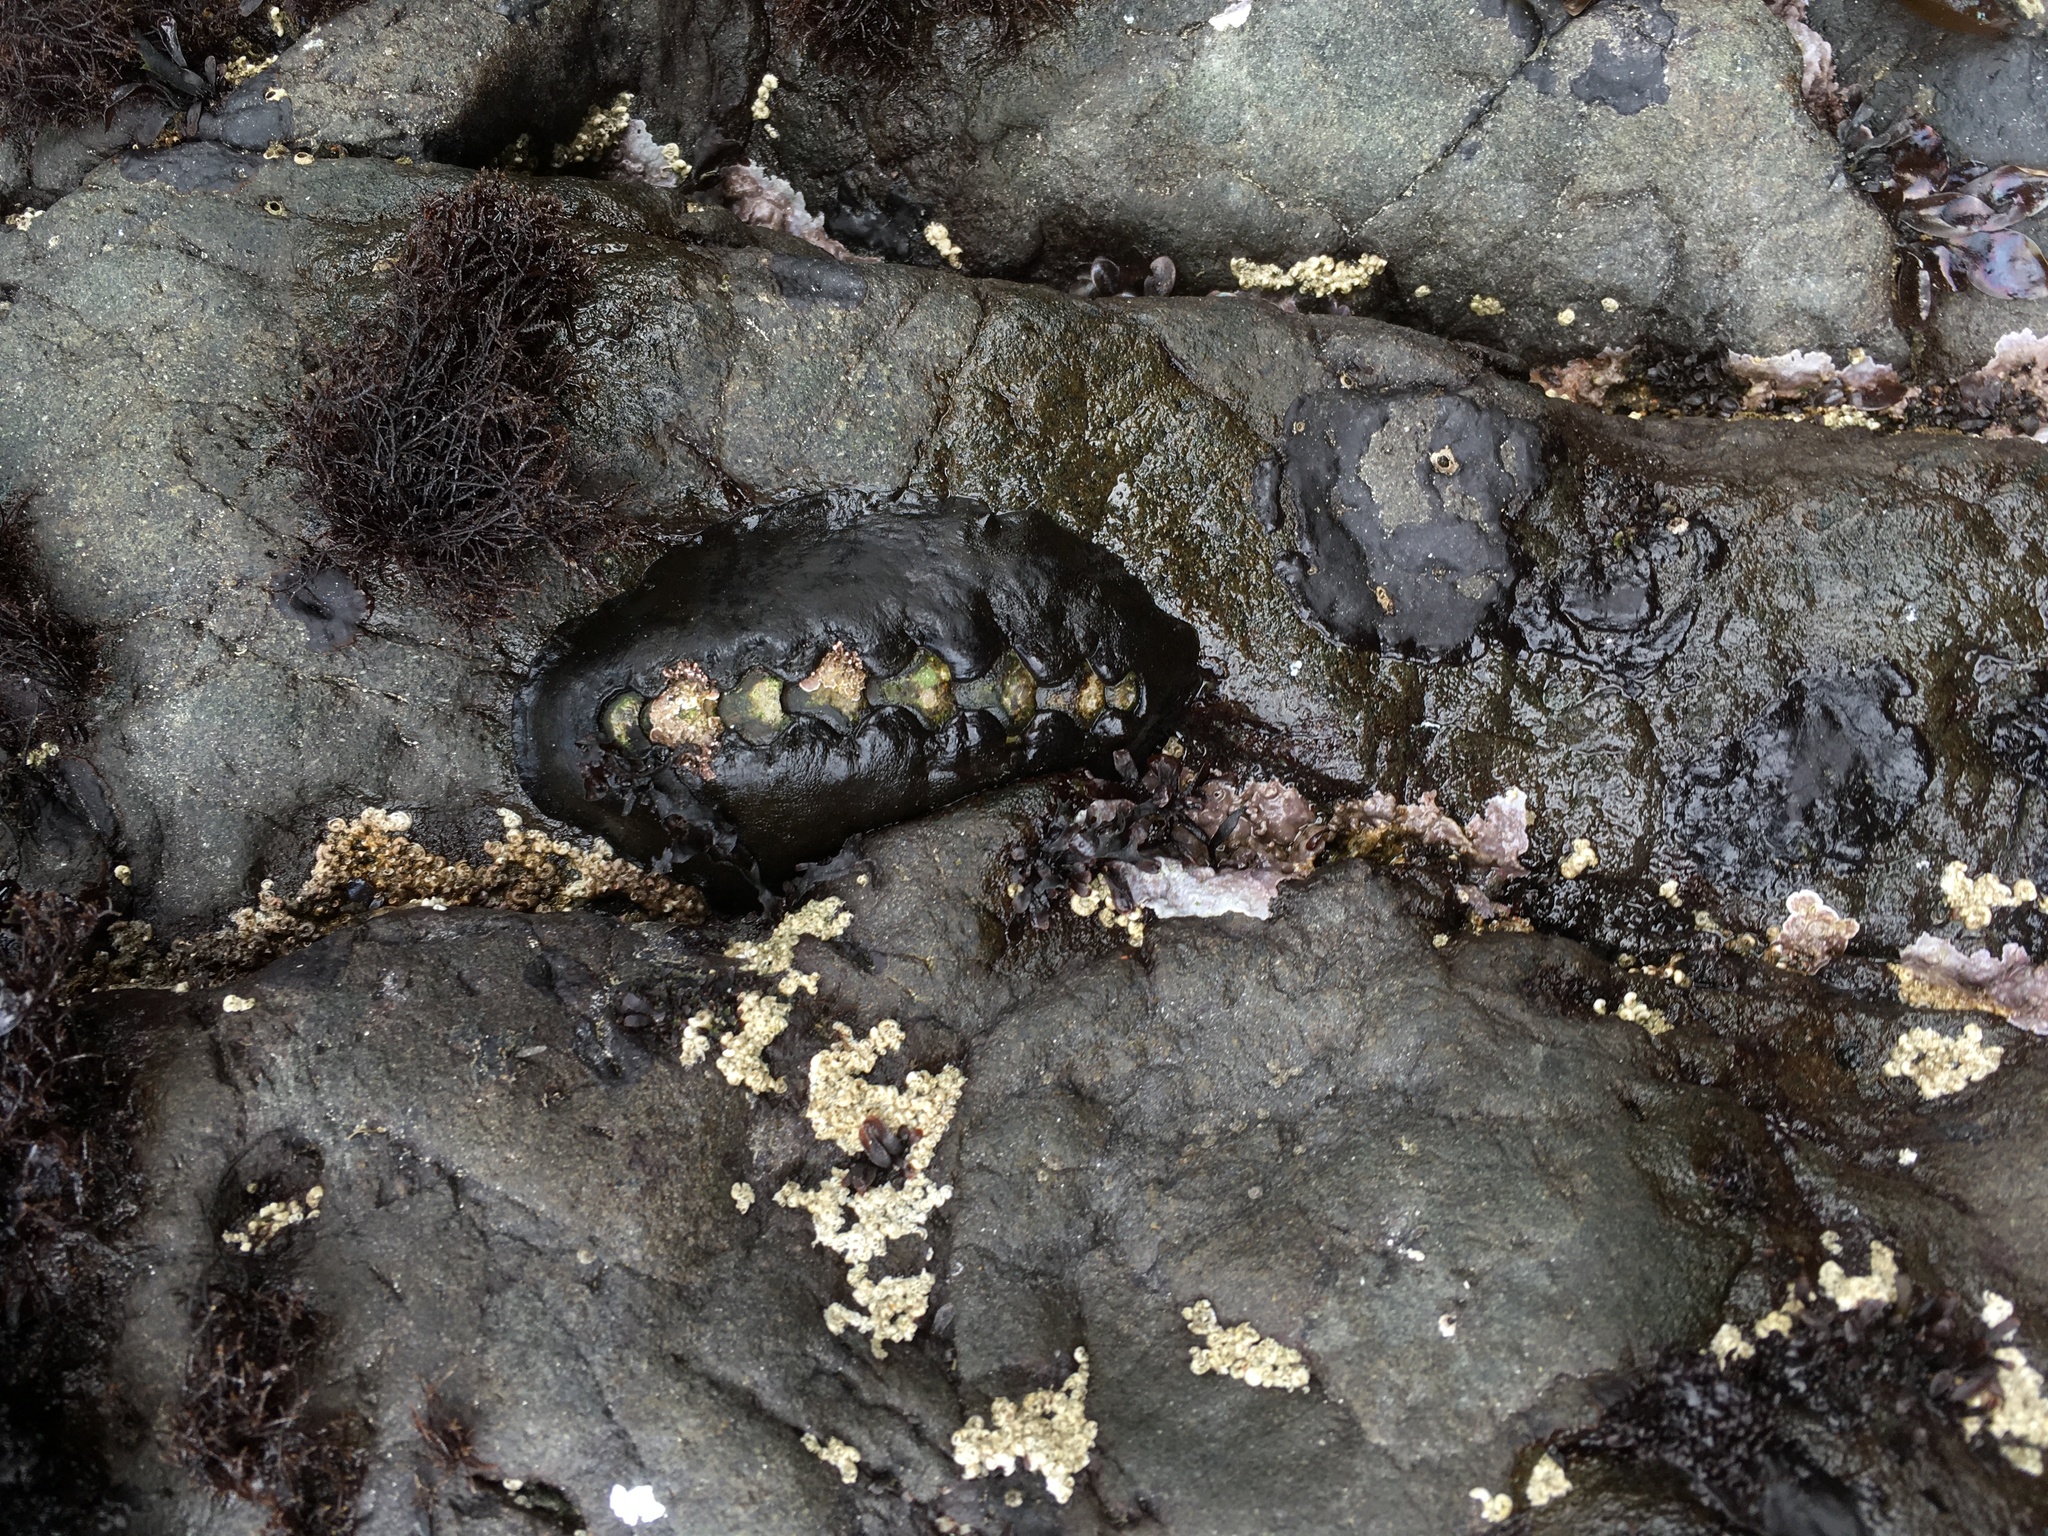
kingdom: Animalia
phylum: Mollusca
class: Polyplacophora
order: Chitonida
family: Mopaliidae
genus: Katharina
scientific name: Katharina tunicata
